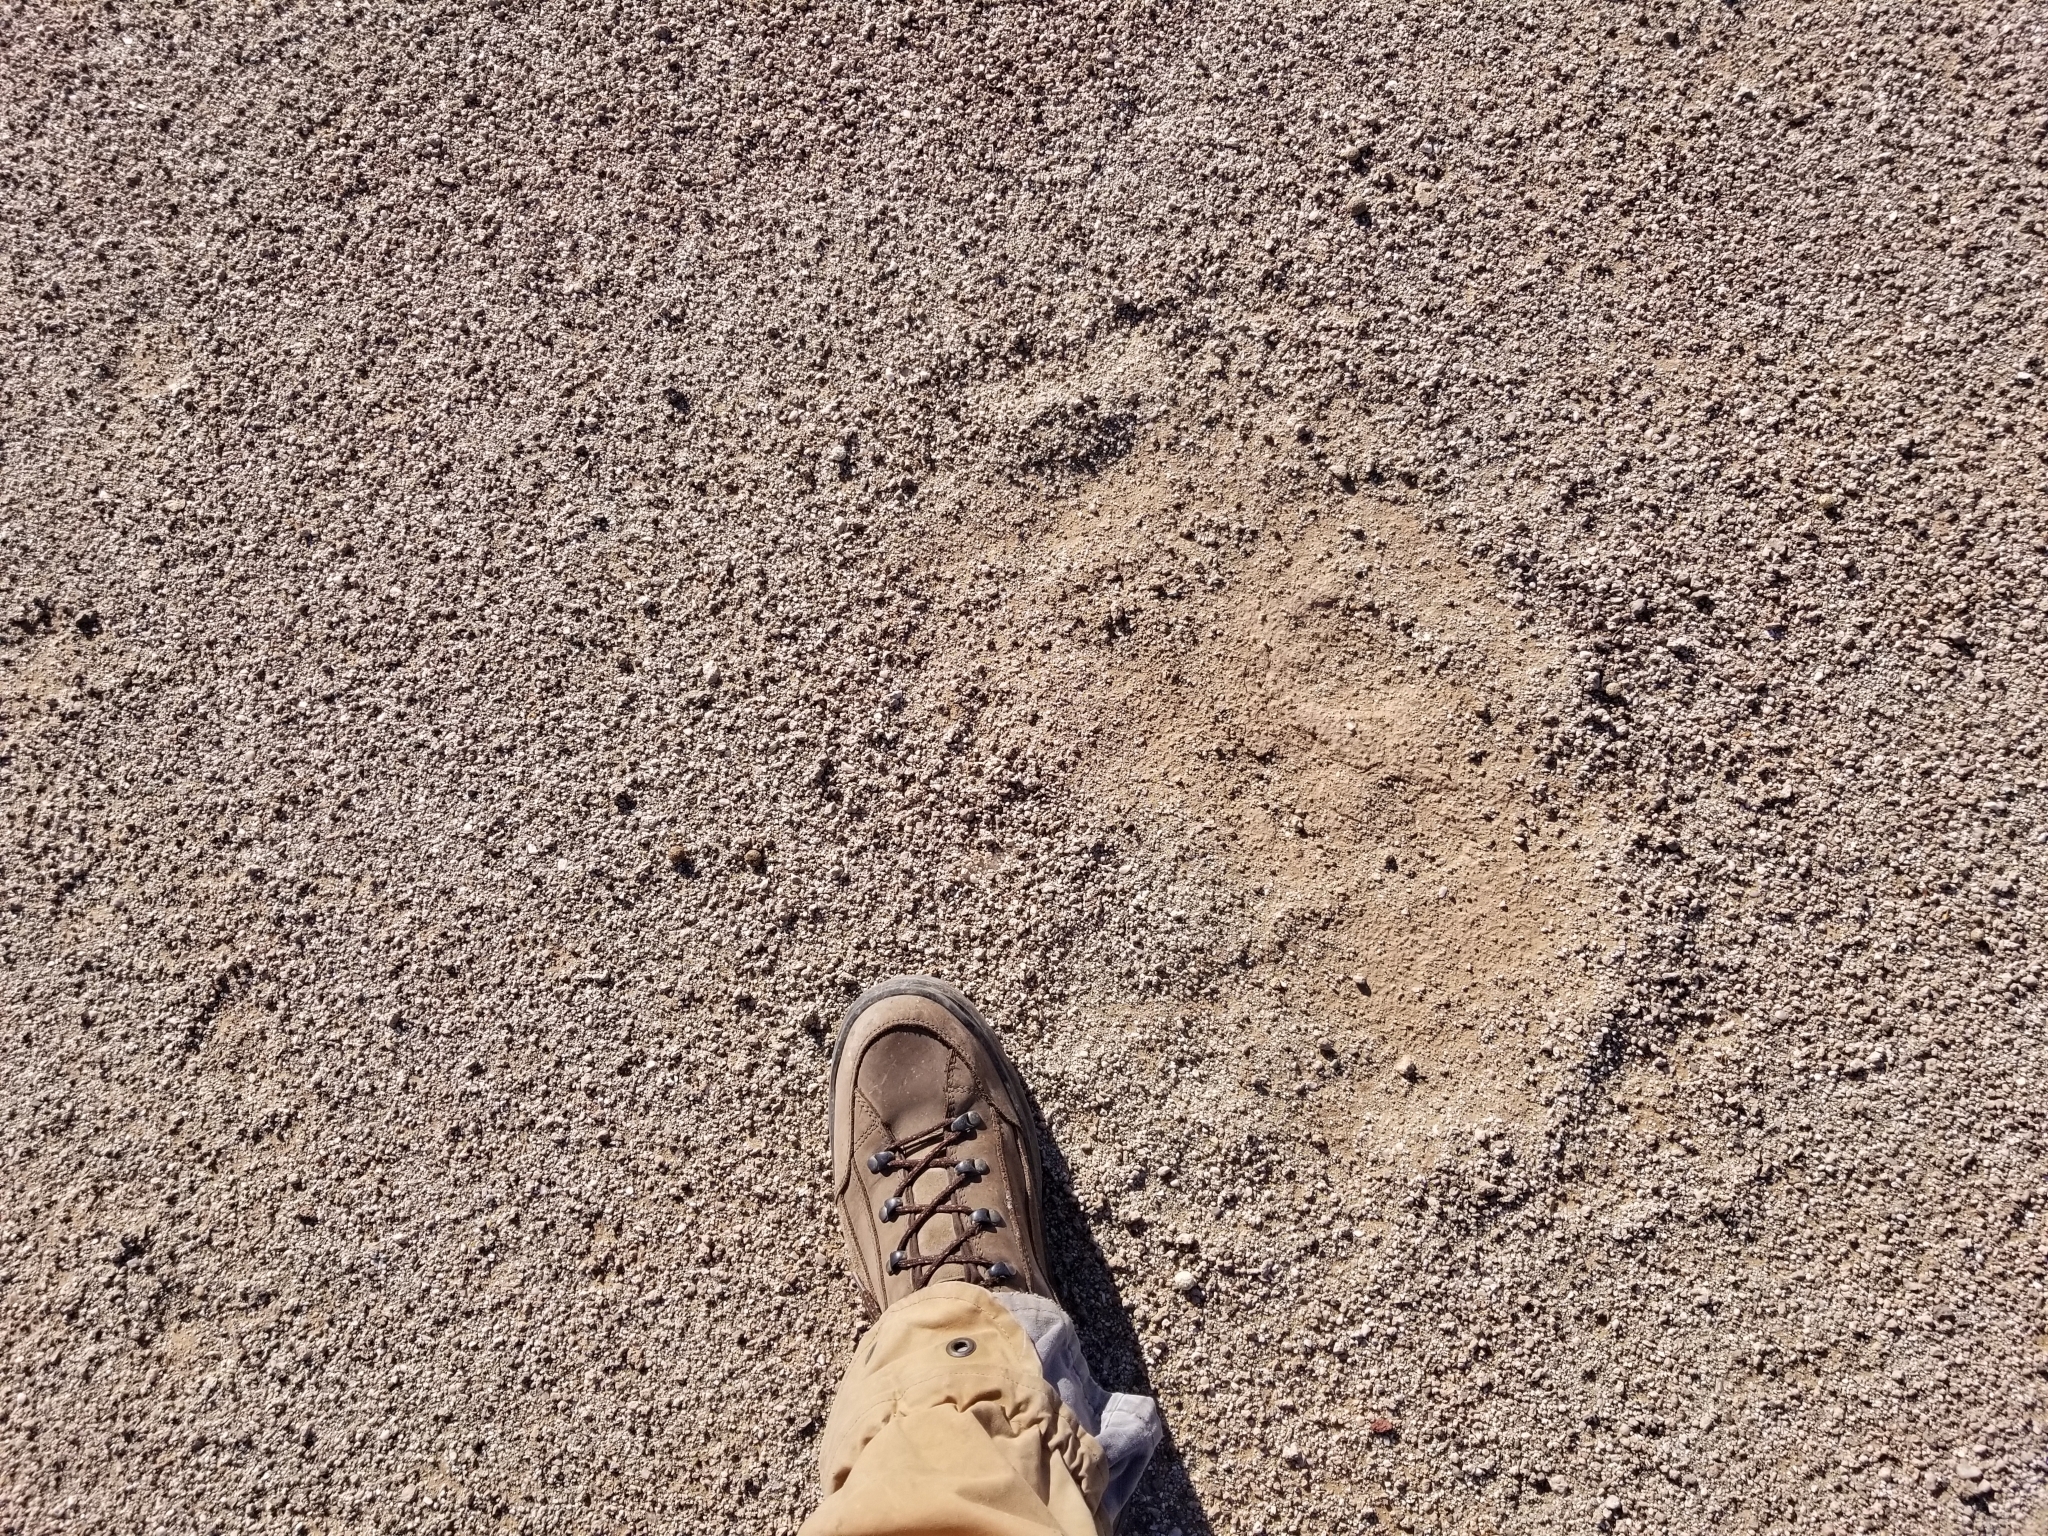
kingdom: Animalia
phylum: Chordata
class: Mammalia
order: Artiodactyla
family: Antilocapridae
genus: Antilocapra
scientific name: Antilocapra americana
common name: Pronghorn
